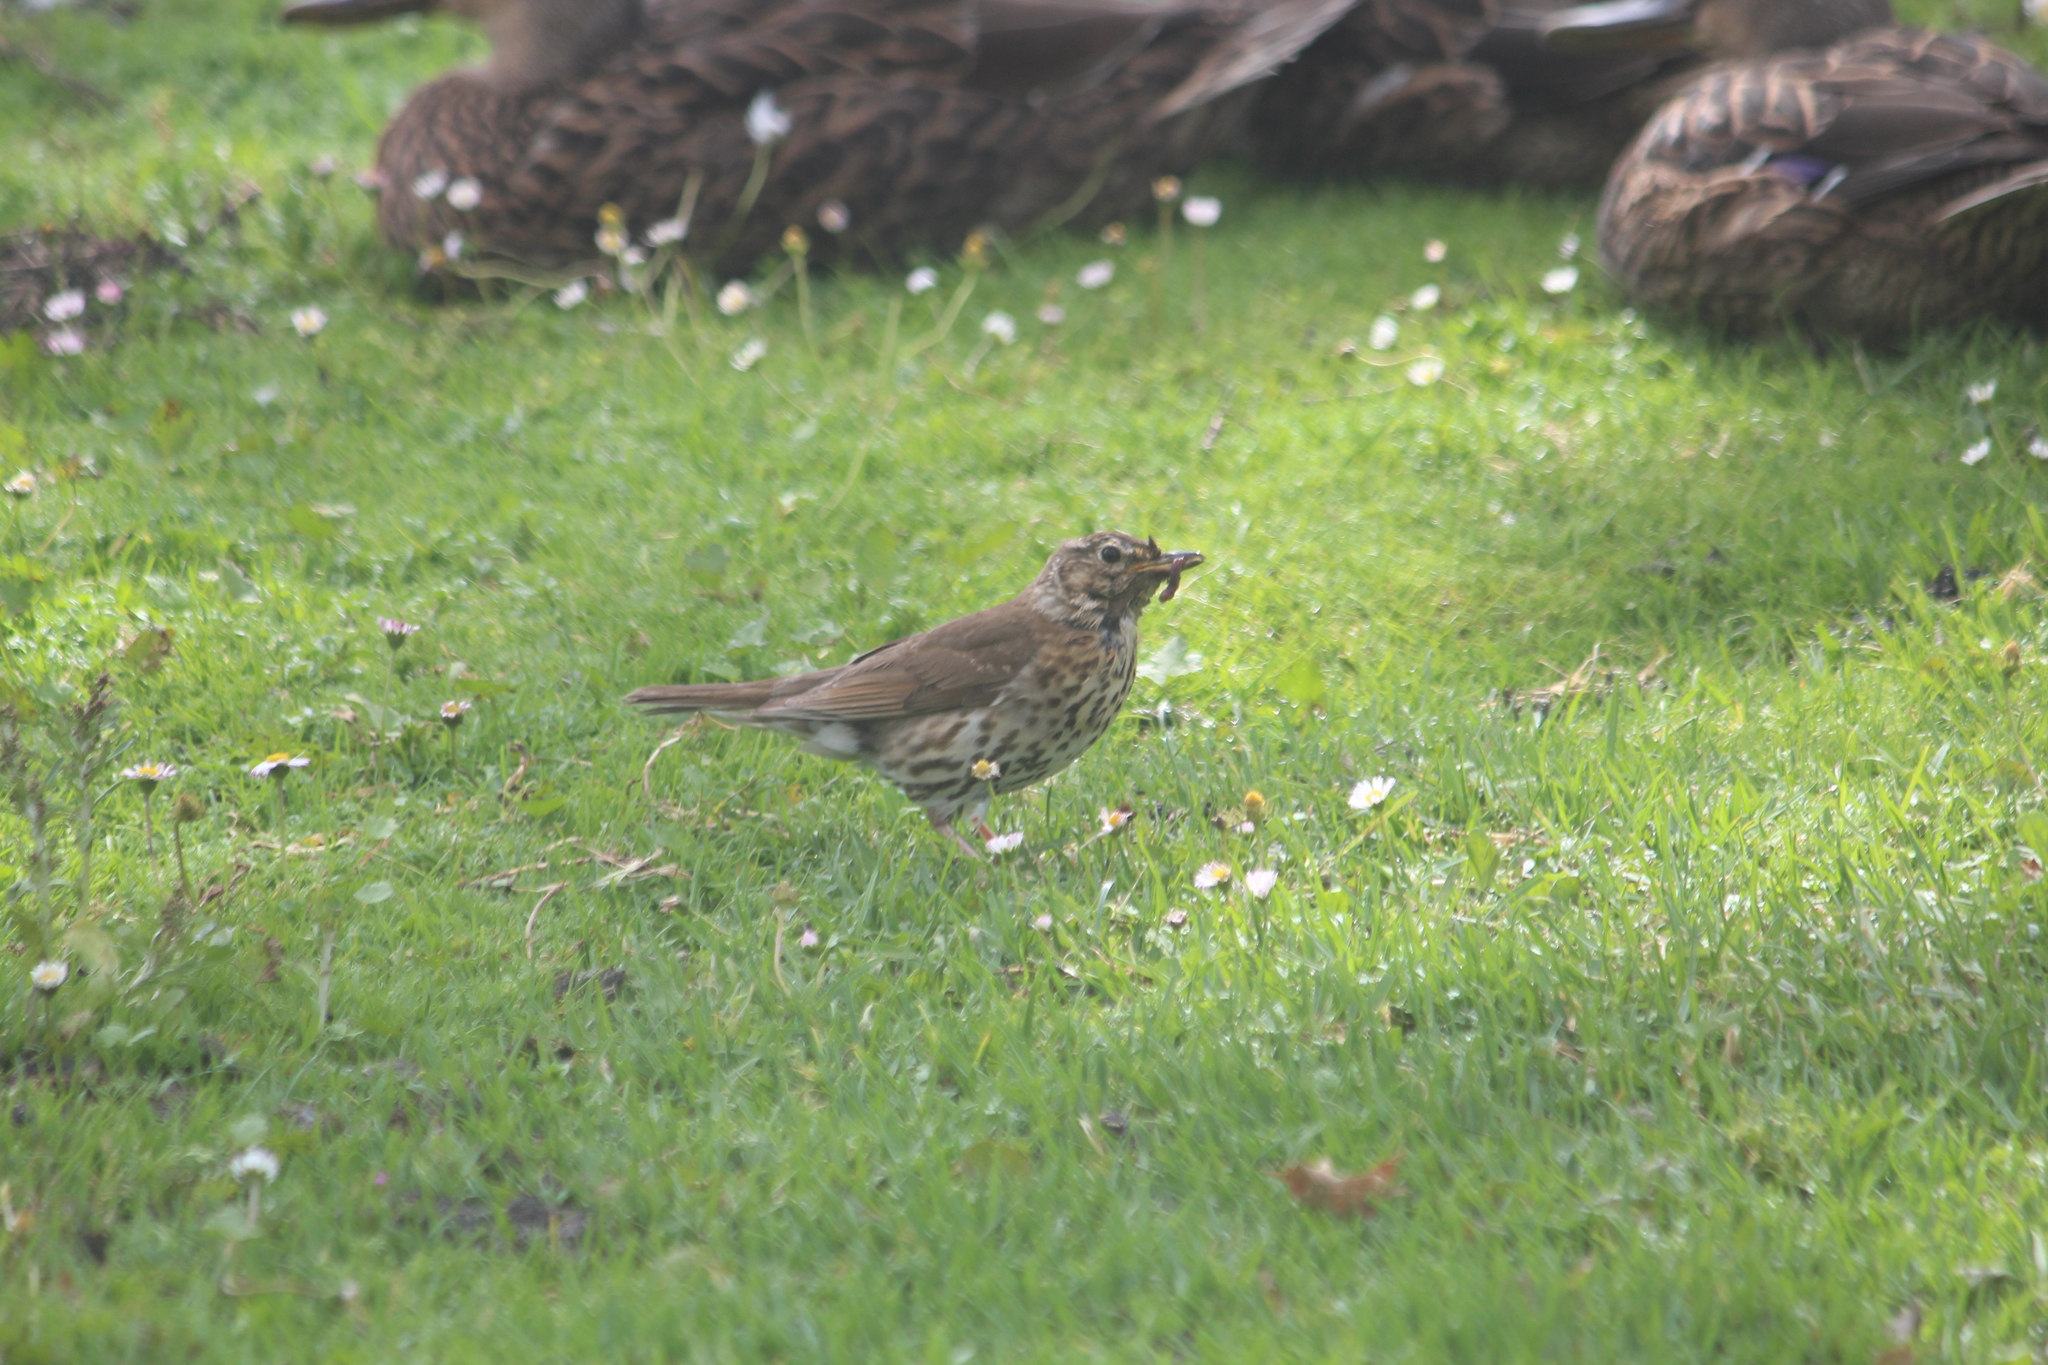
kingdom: Animalia
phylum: Chordata
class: Aves
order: Passeriformes
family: Turdidae
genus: Turdus
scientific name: Turdus philomelos
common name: Song thrush
